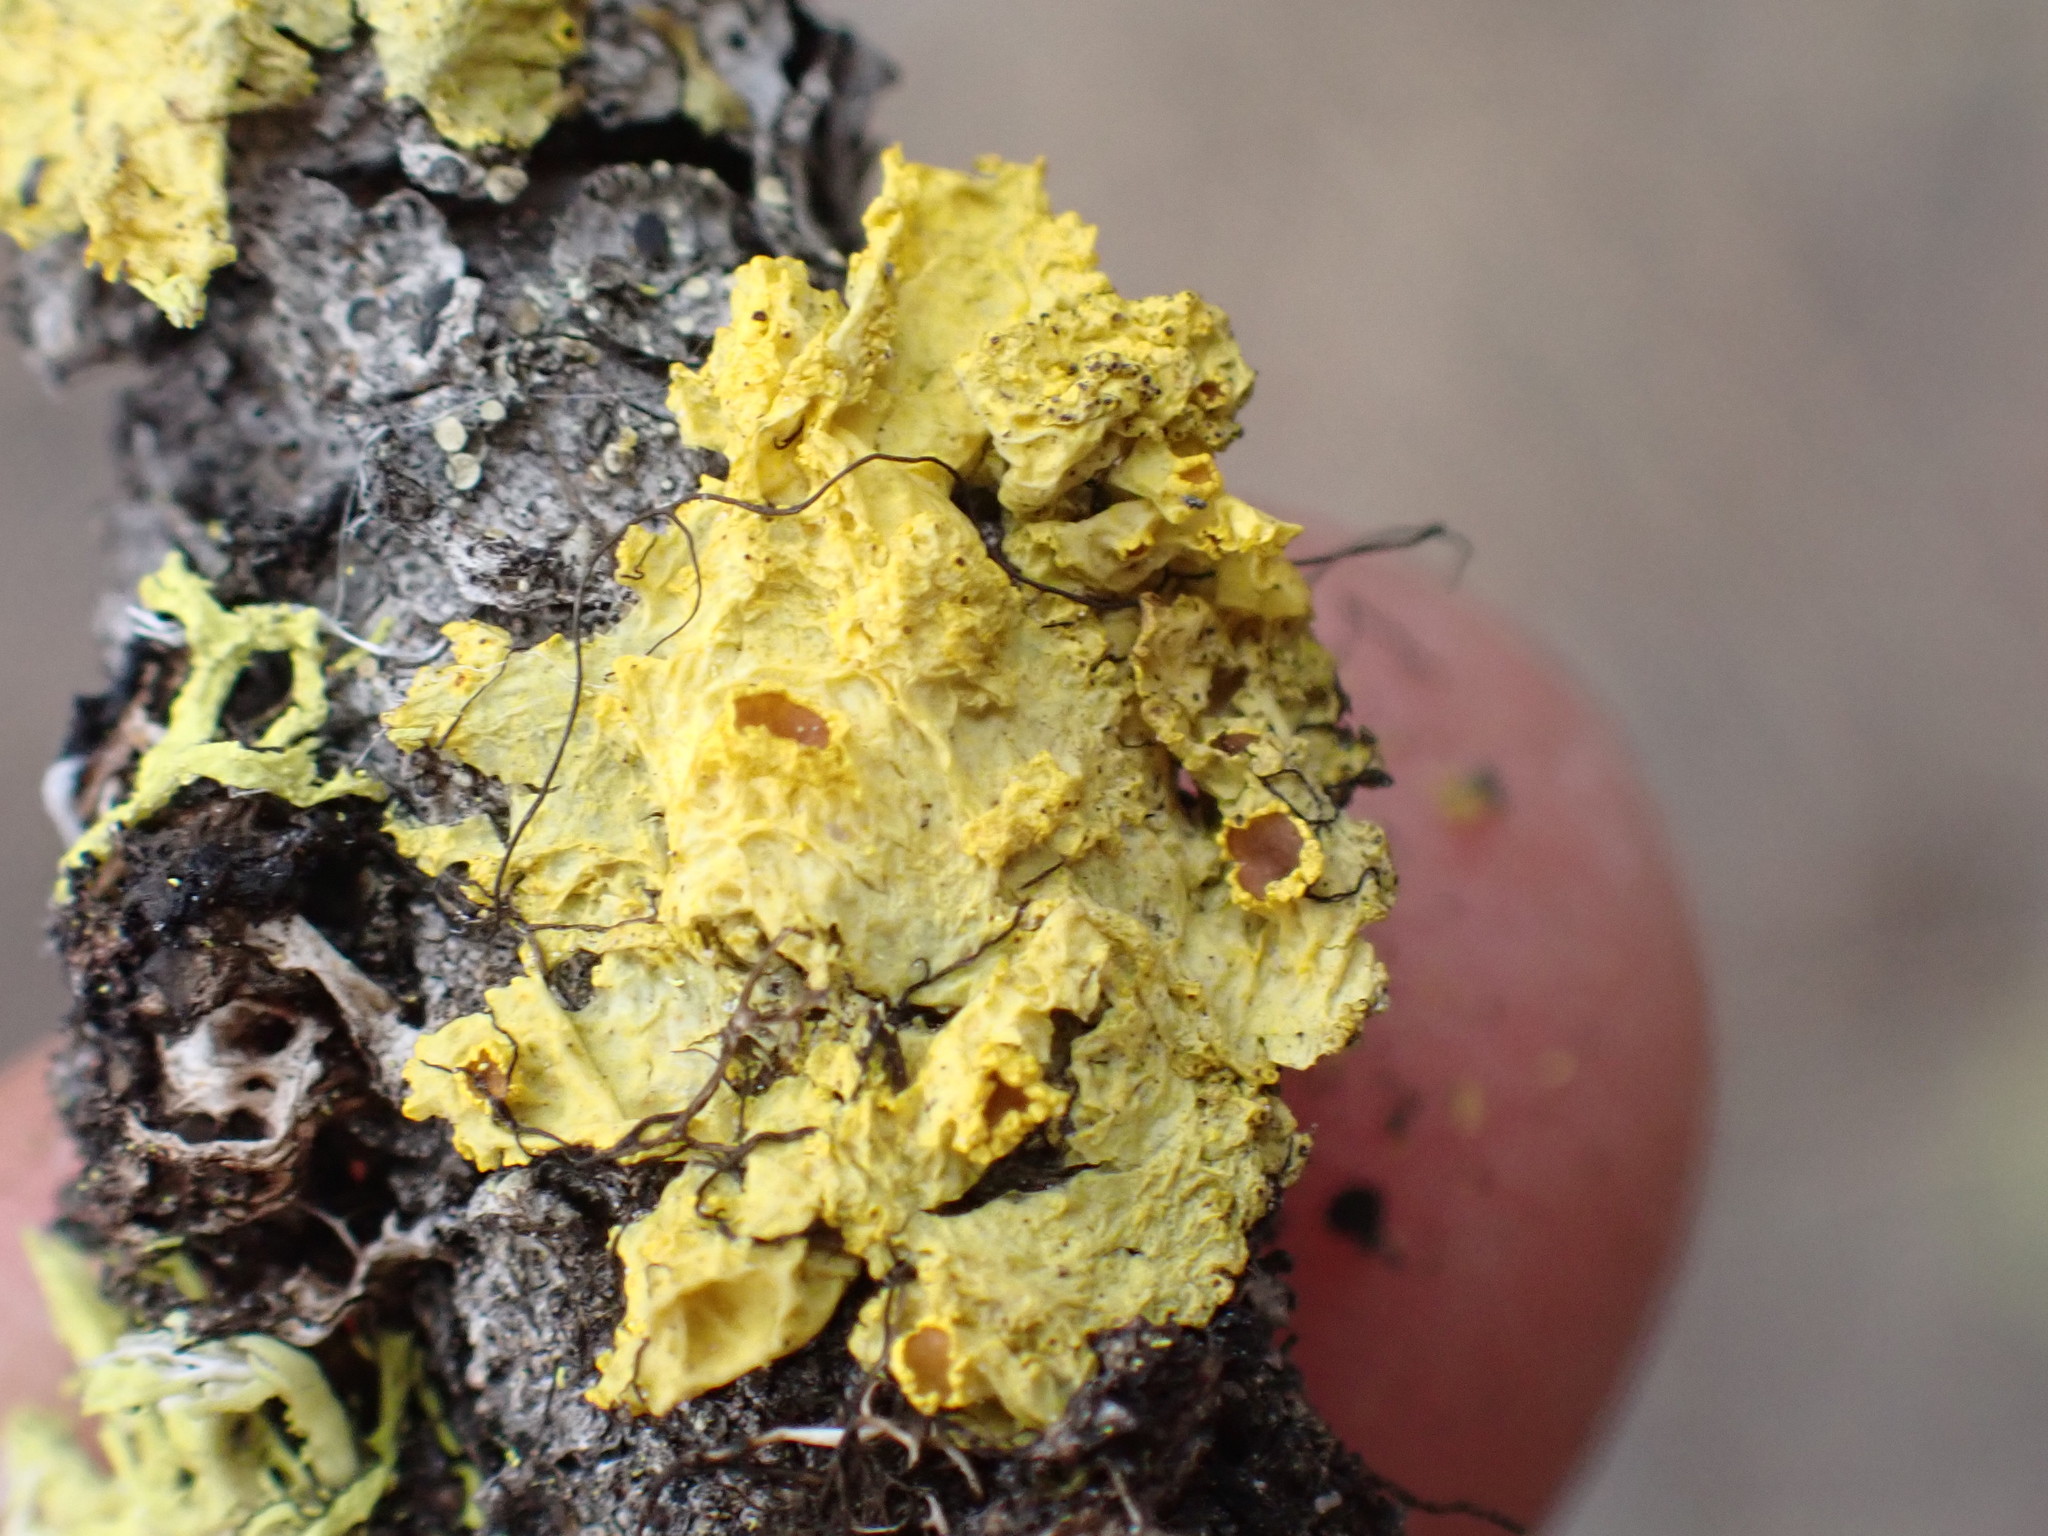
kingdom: Fungi
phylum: Ascomycota
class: Lecanoromycetes
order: Lecanorales
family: Parmeliaceae
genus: Vulpicida
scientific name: Vulpicida canadensis
